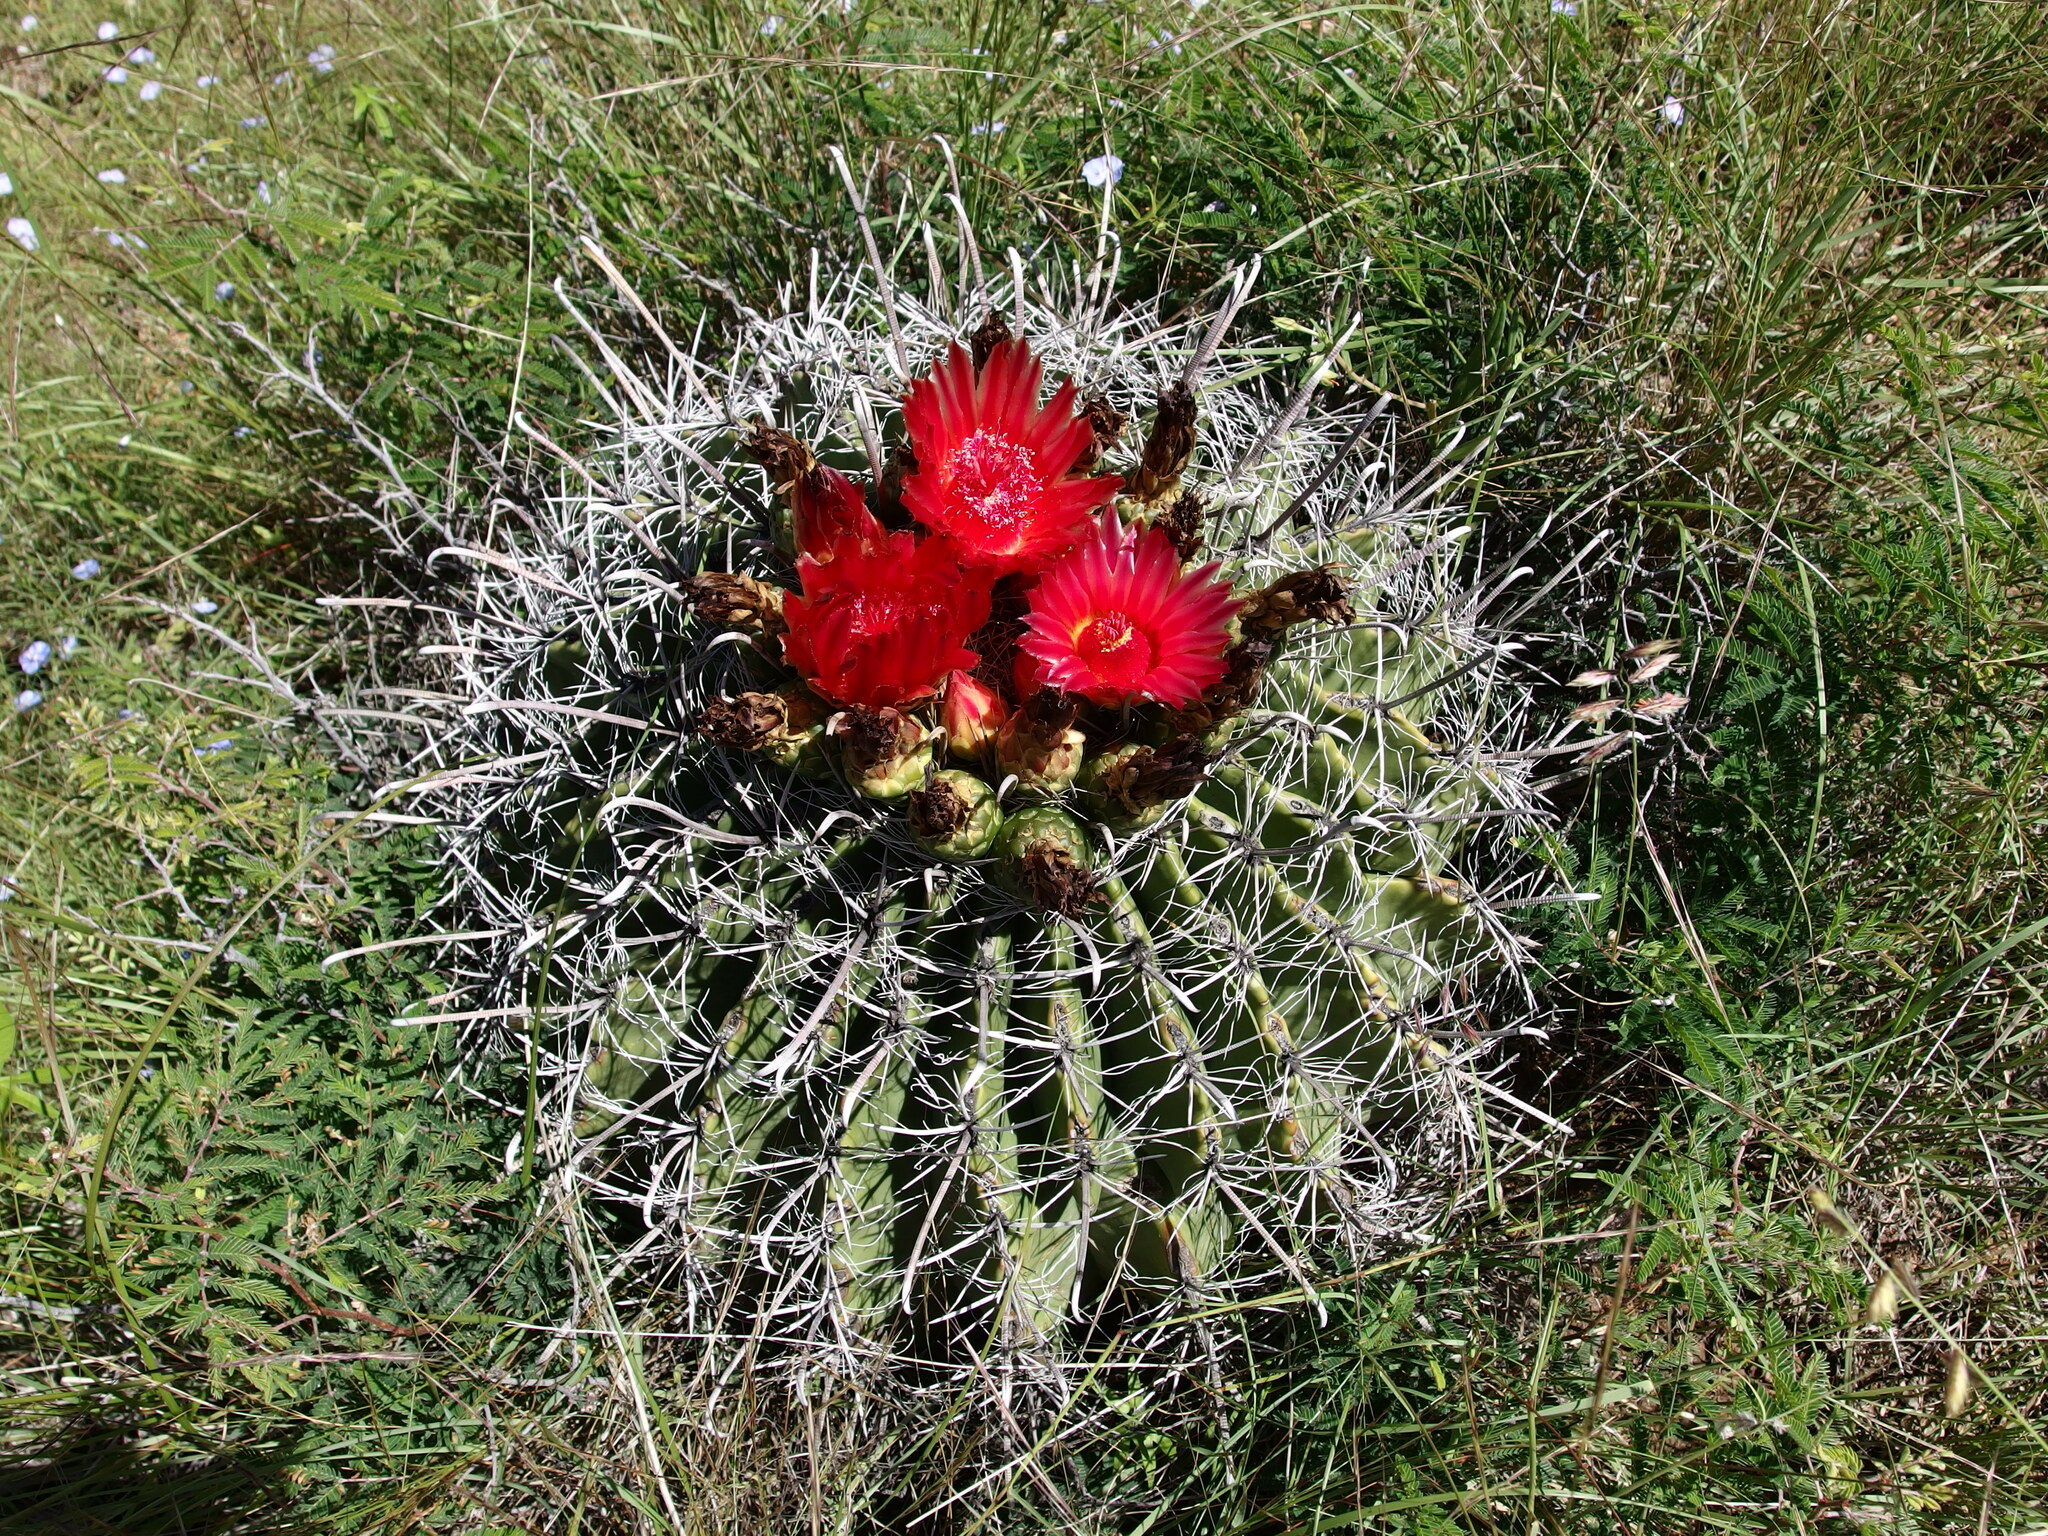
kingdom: Plantae
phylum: Tracheophyta
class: Magnoliopsida
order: Caryophyllales
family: Cactaceae
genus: Ferocactus
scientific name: Ferocactus wislizeni
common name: Candy barrel cactus
